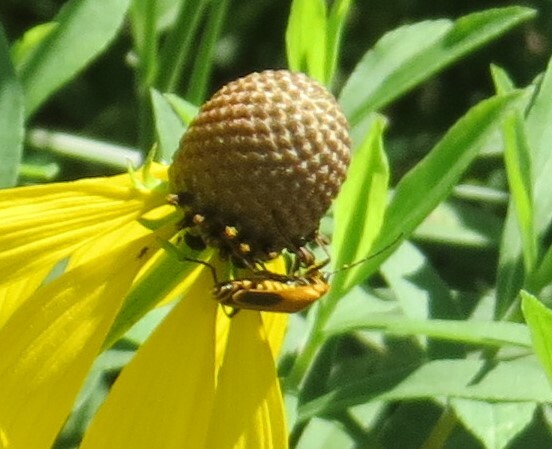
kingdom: Animalia
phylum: Arthropoda
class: Insecta
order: Coleoptera
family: Cantharidae
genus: Chauliognathus
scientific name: Chauliognathus pensylvanicus
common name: Goldenrod soldier beetle
